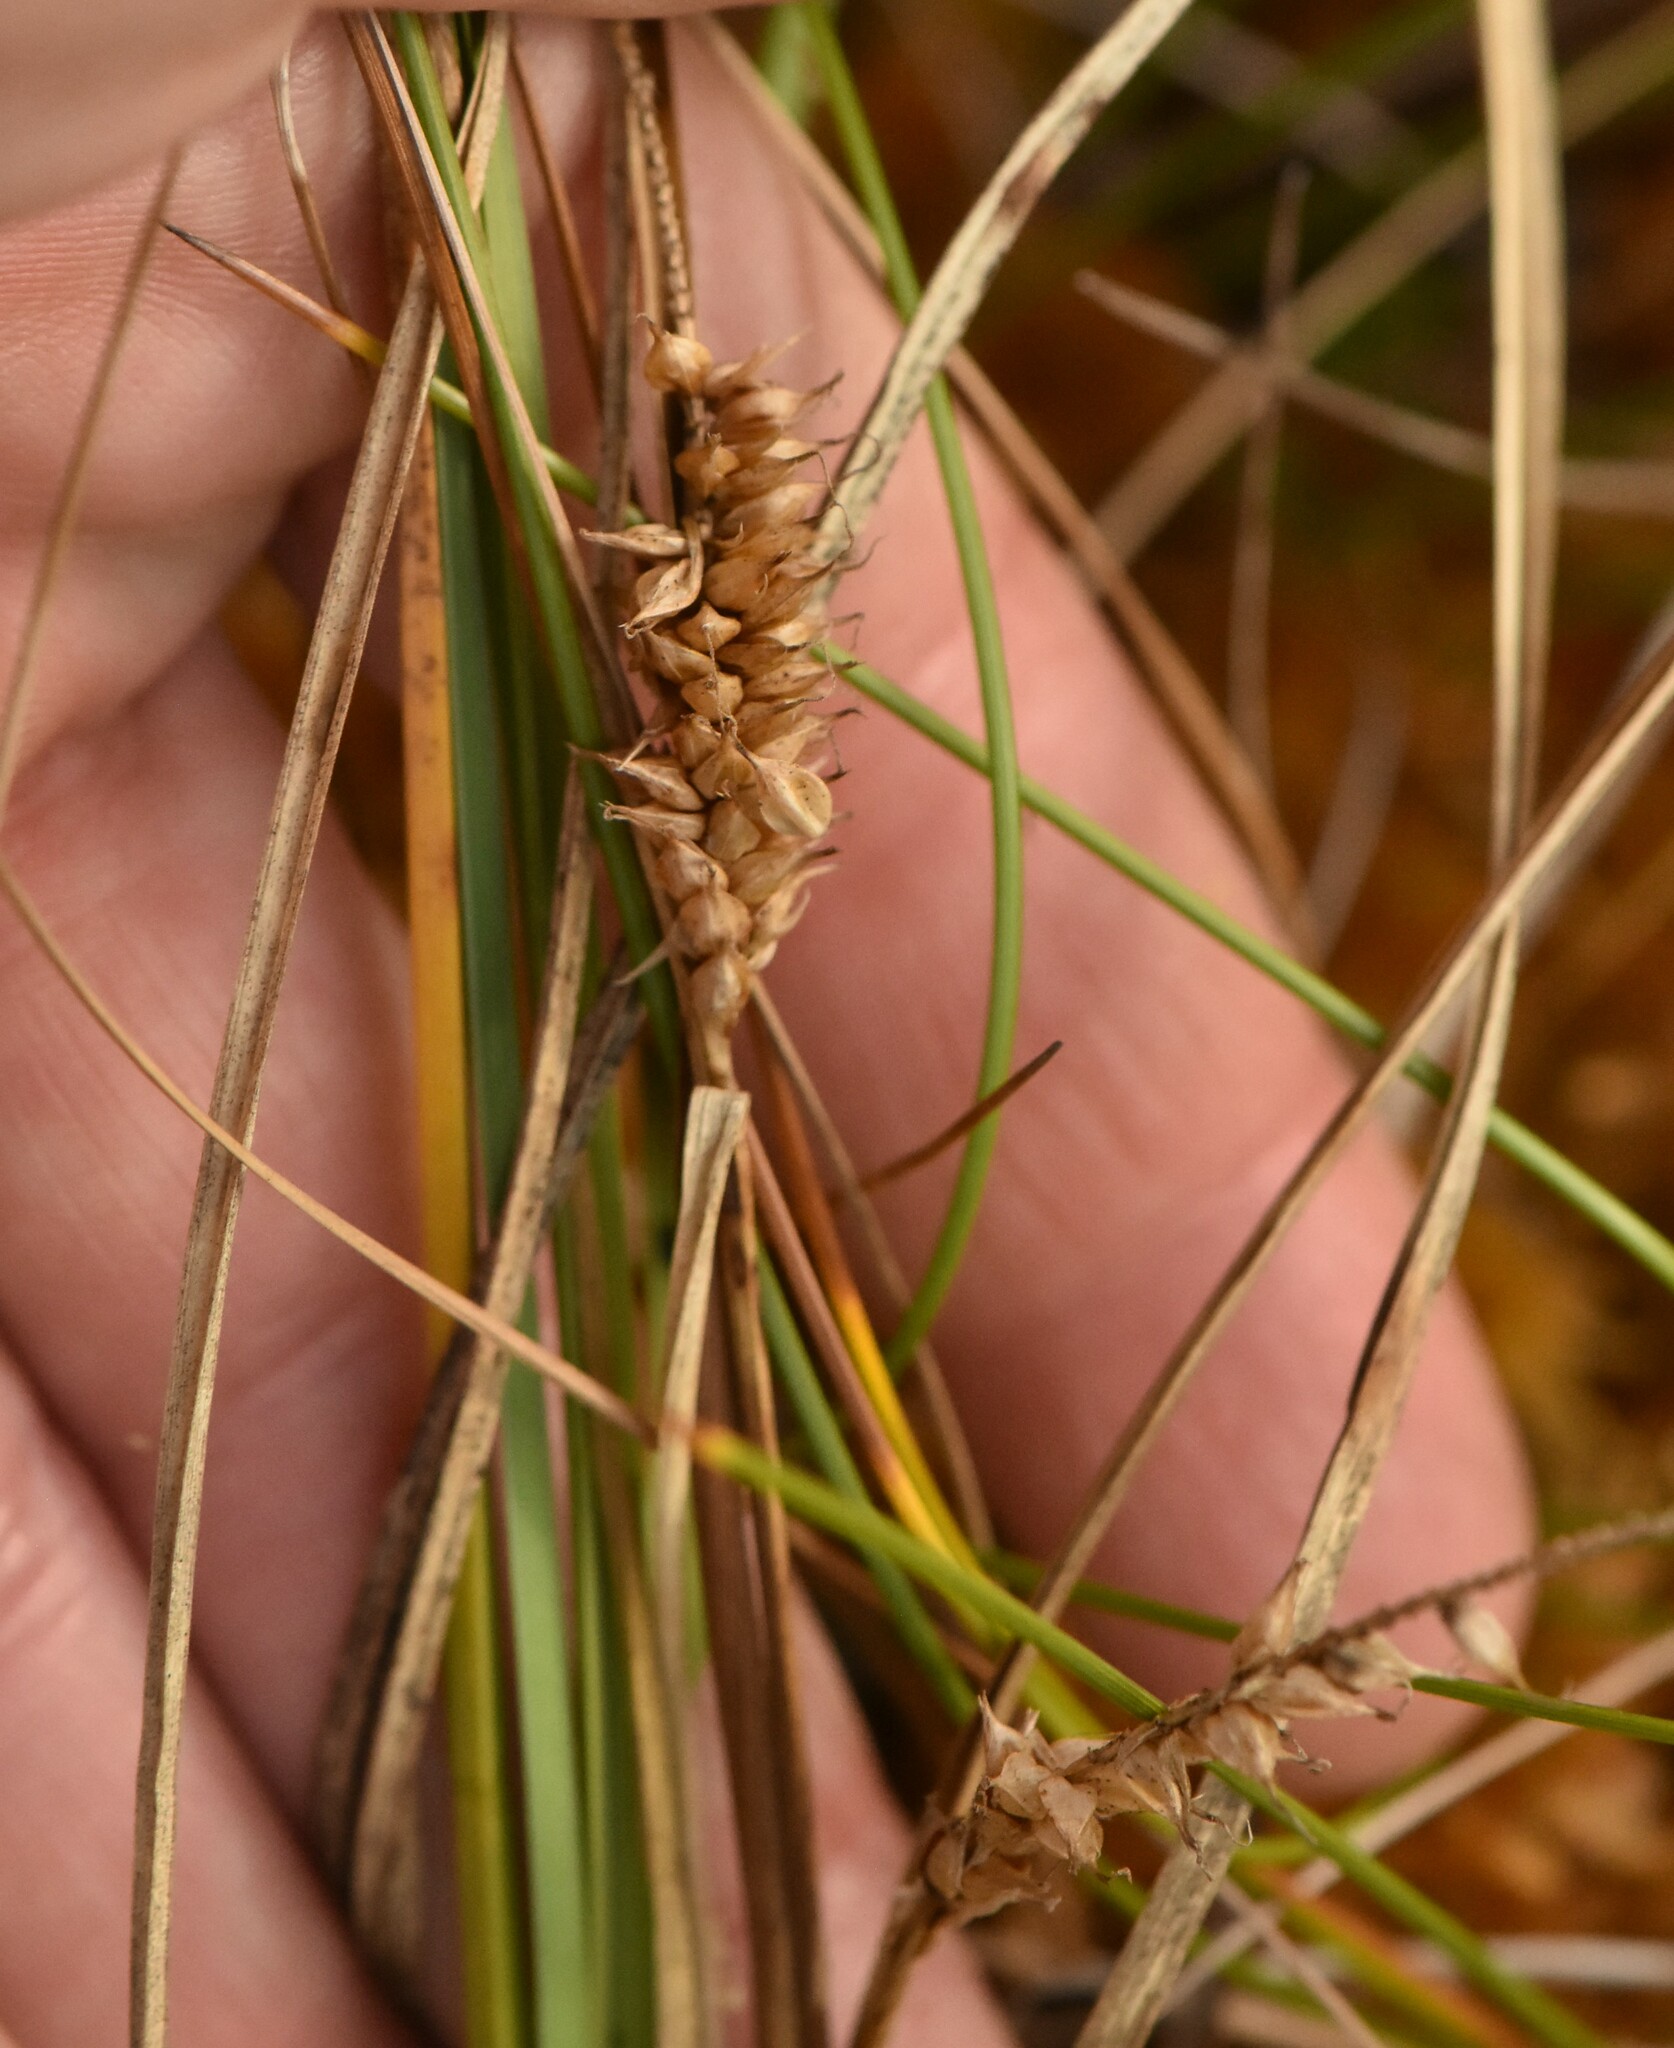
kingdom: Plantae
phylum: Tracheophyta
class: Liliopsida
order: Poales
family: Cyperaceae
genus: Carex
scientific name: Carex rostrata
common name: Bottle sedge
